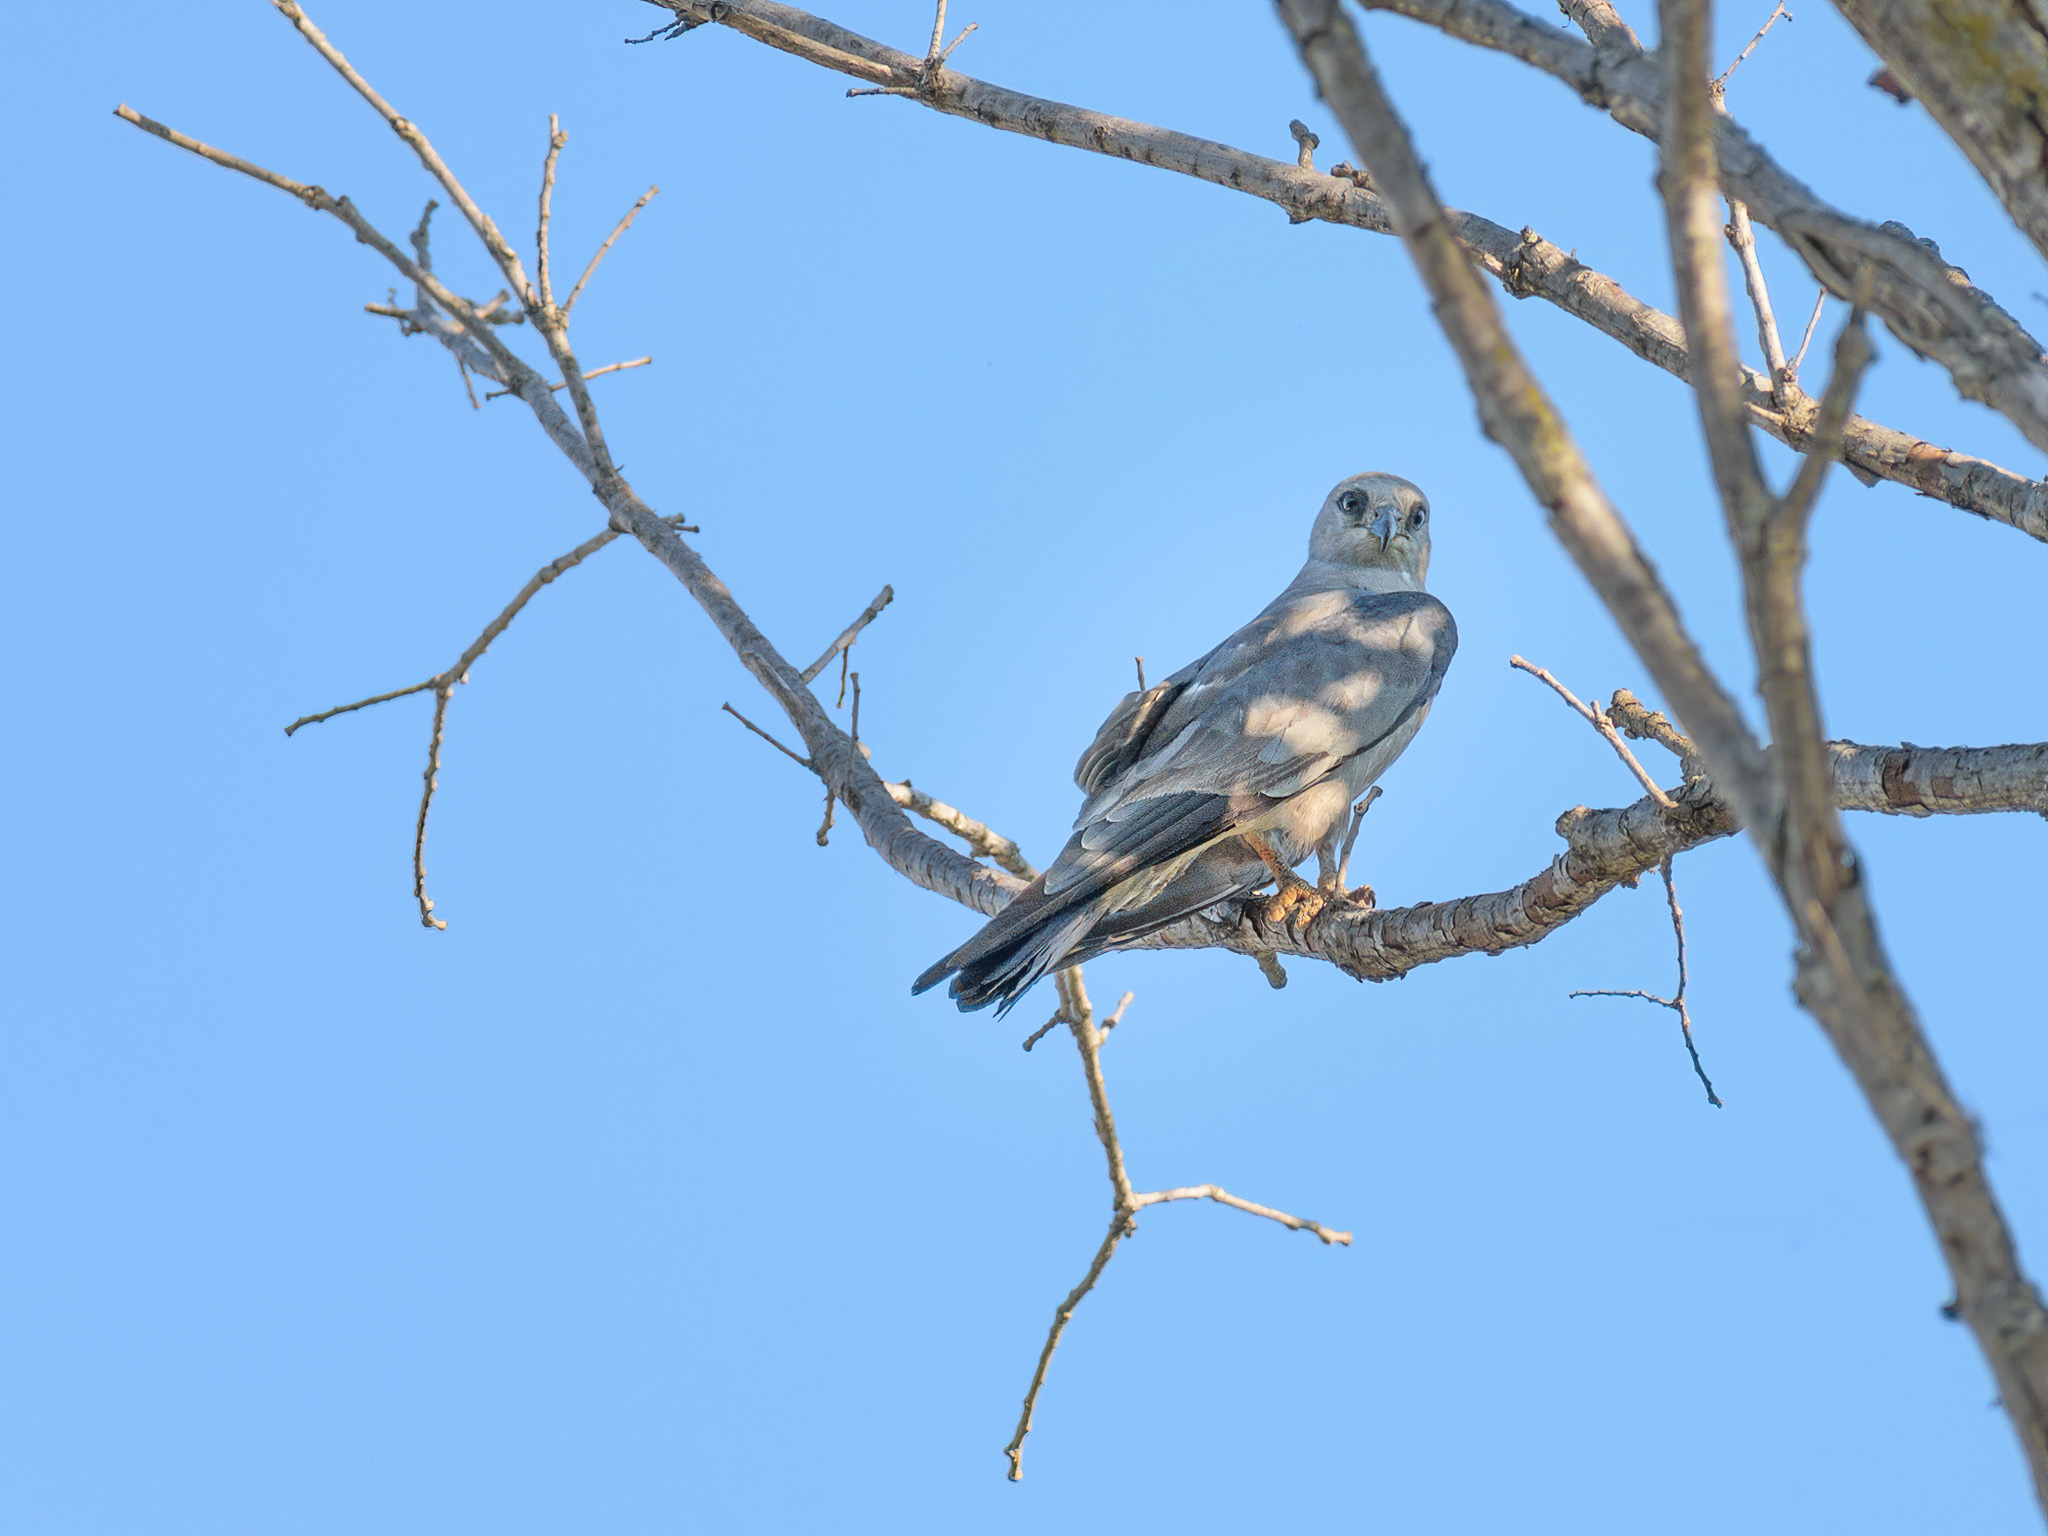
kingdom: Animalia
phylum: Chordata
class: Aves
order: Accipitriformes
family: Accipitridae
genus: Ictinia
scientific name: Ictinia mississippiensis
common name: Mississippi kite
